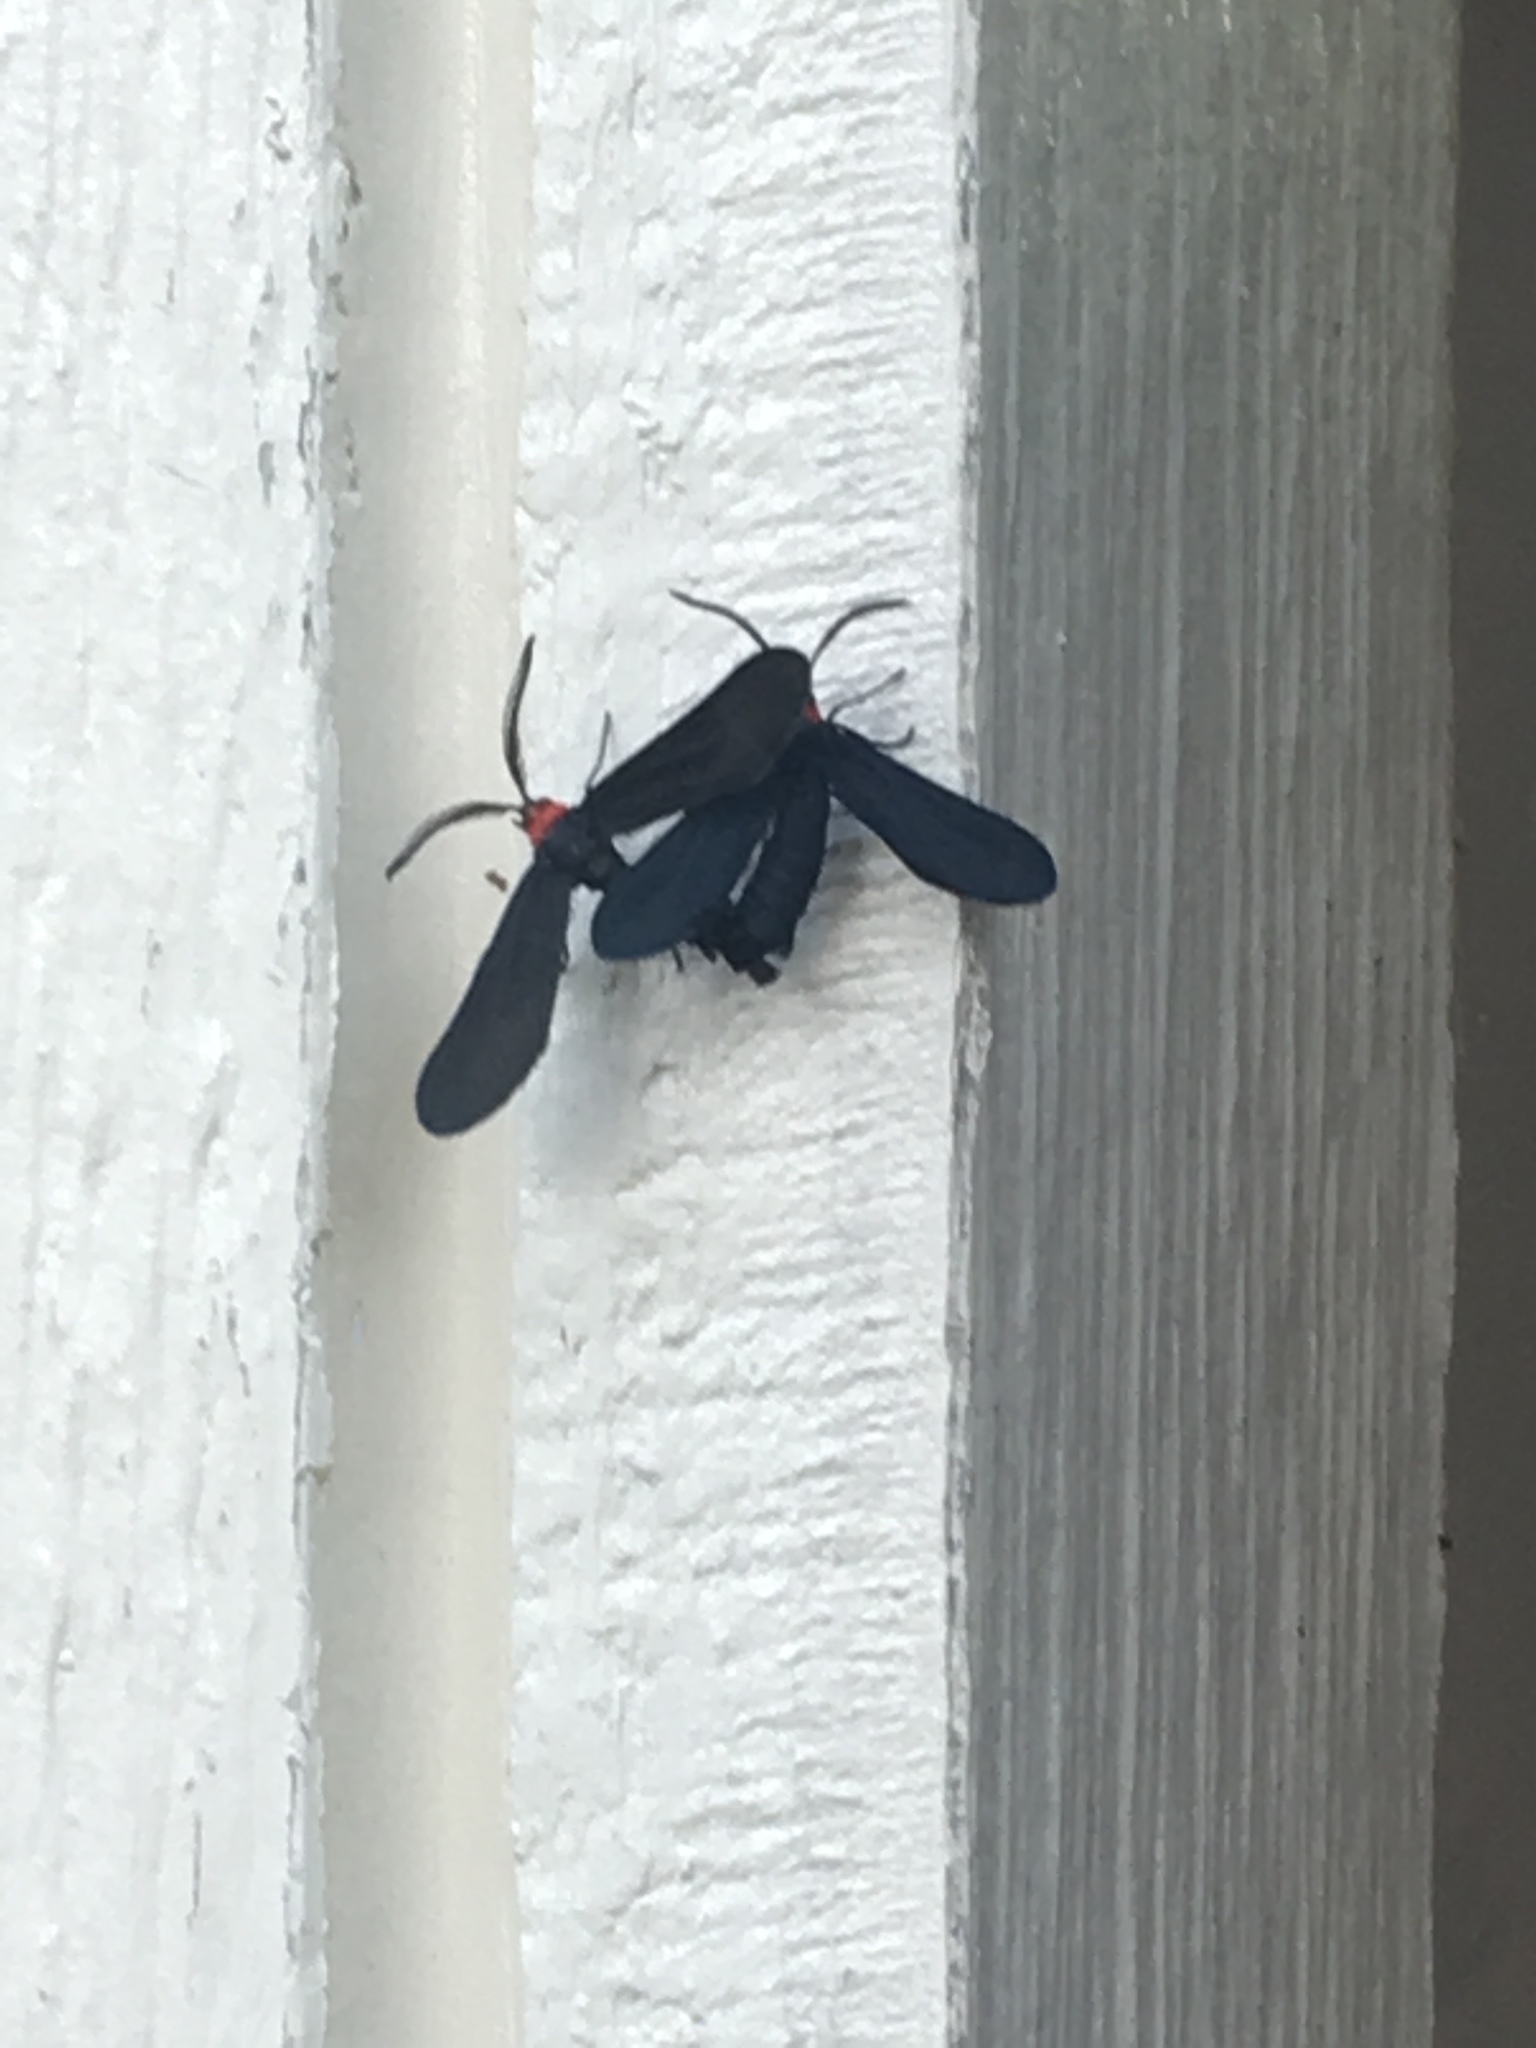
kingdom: Animalia
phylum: Arthropoda
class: Insecta
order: Lepidoptera
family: Zygaenidae
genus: Harrisina
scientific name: Harrisina americana
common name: Grapeleaf skeletonizer moth
